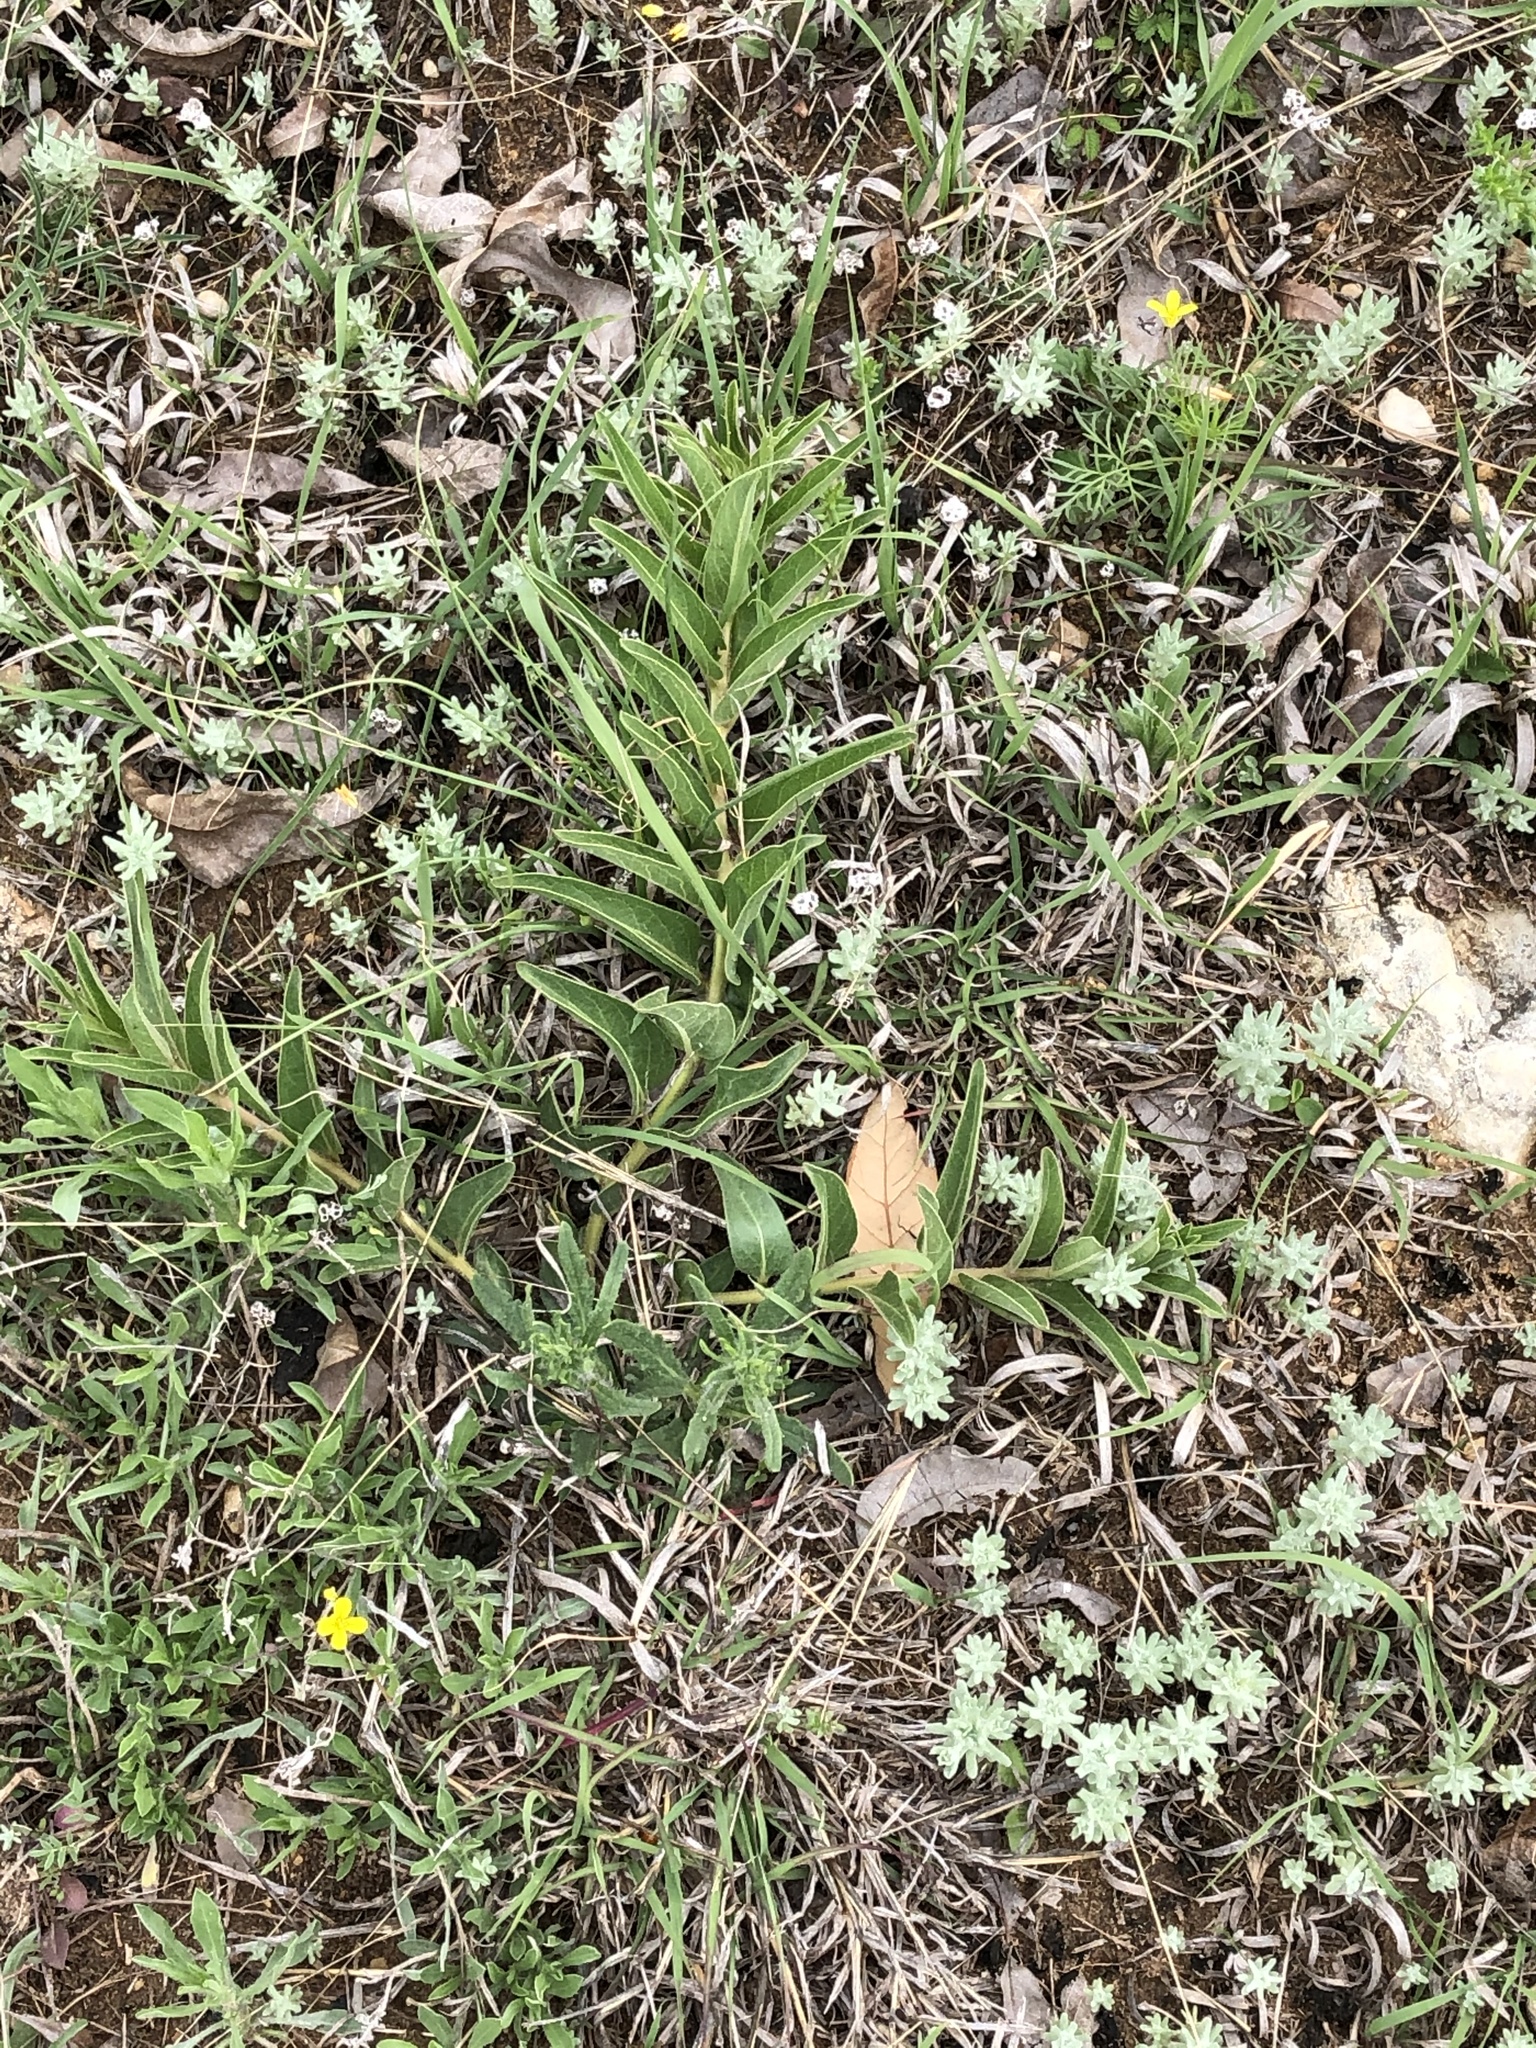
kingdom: Plantae
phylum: Tracheophyta
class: Magnoliopsida
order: Gentianales
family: Apocynaceae
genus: Asclepias
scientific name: Asclepias asperula
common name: Antelope horns
